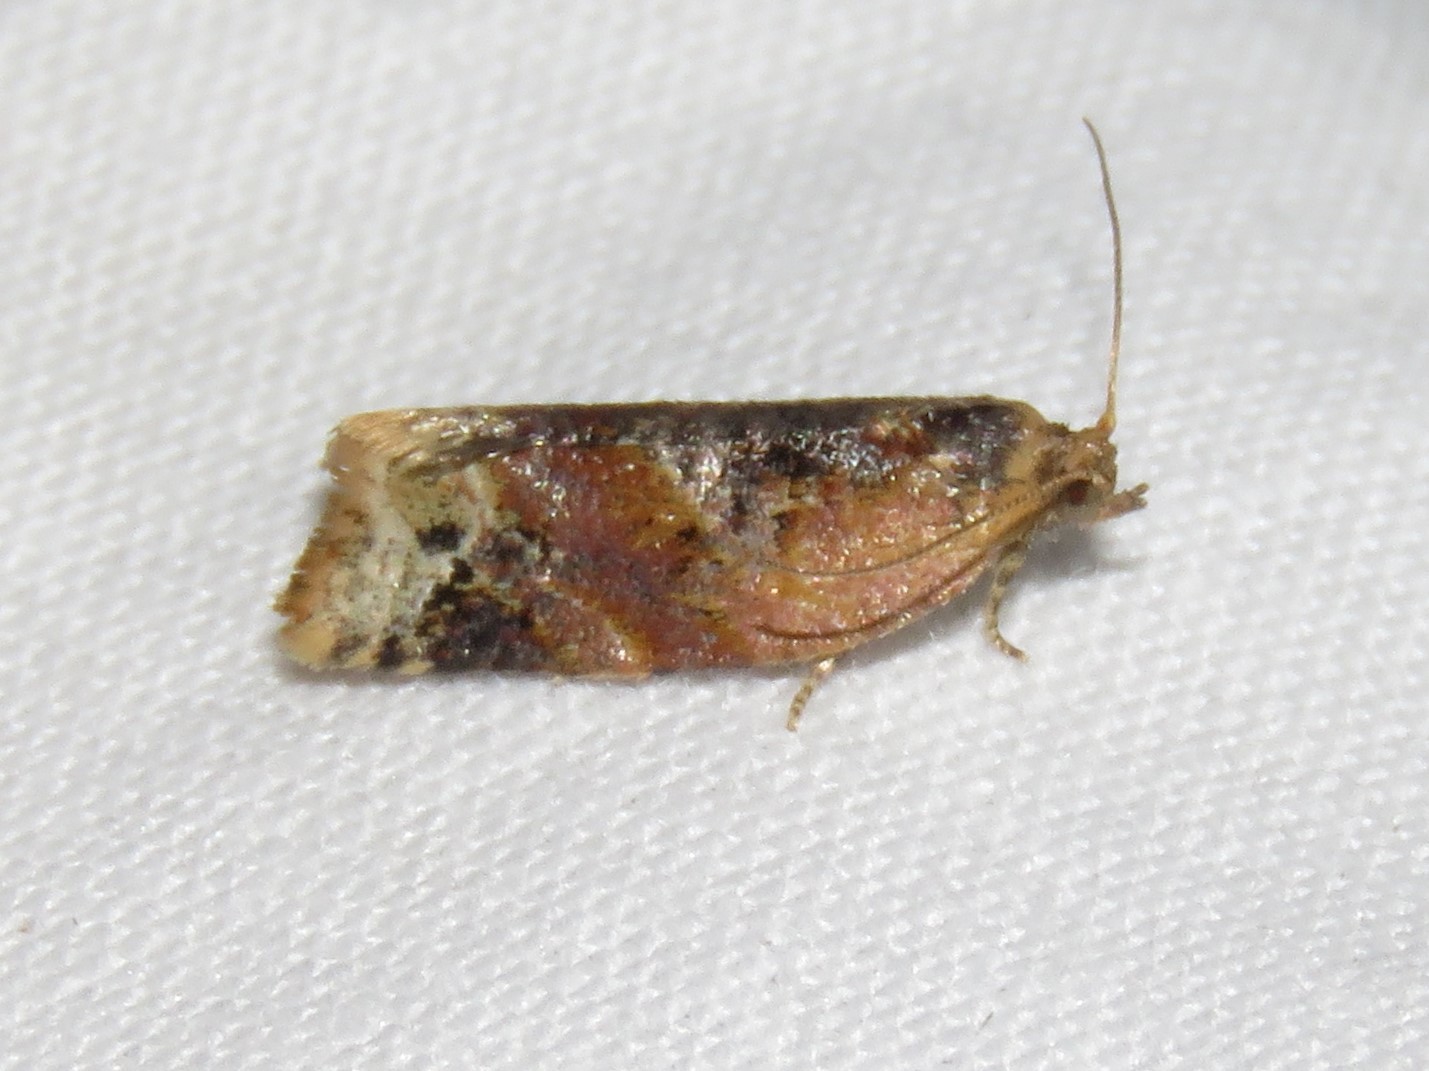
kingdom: Animalia
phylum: Arthropoda
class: Insecta
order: Lepidoptera
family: Tortricidae
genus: Argyrotaenia
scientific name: Argyrotaenia velutinana
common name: Red-banded leafroller moth
